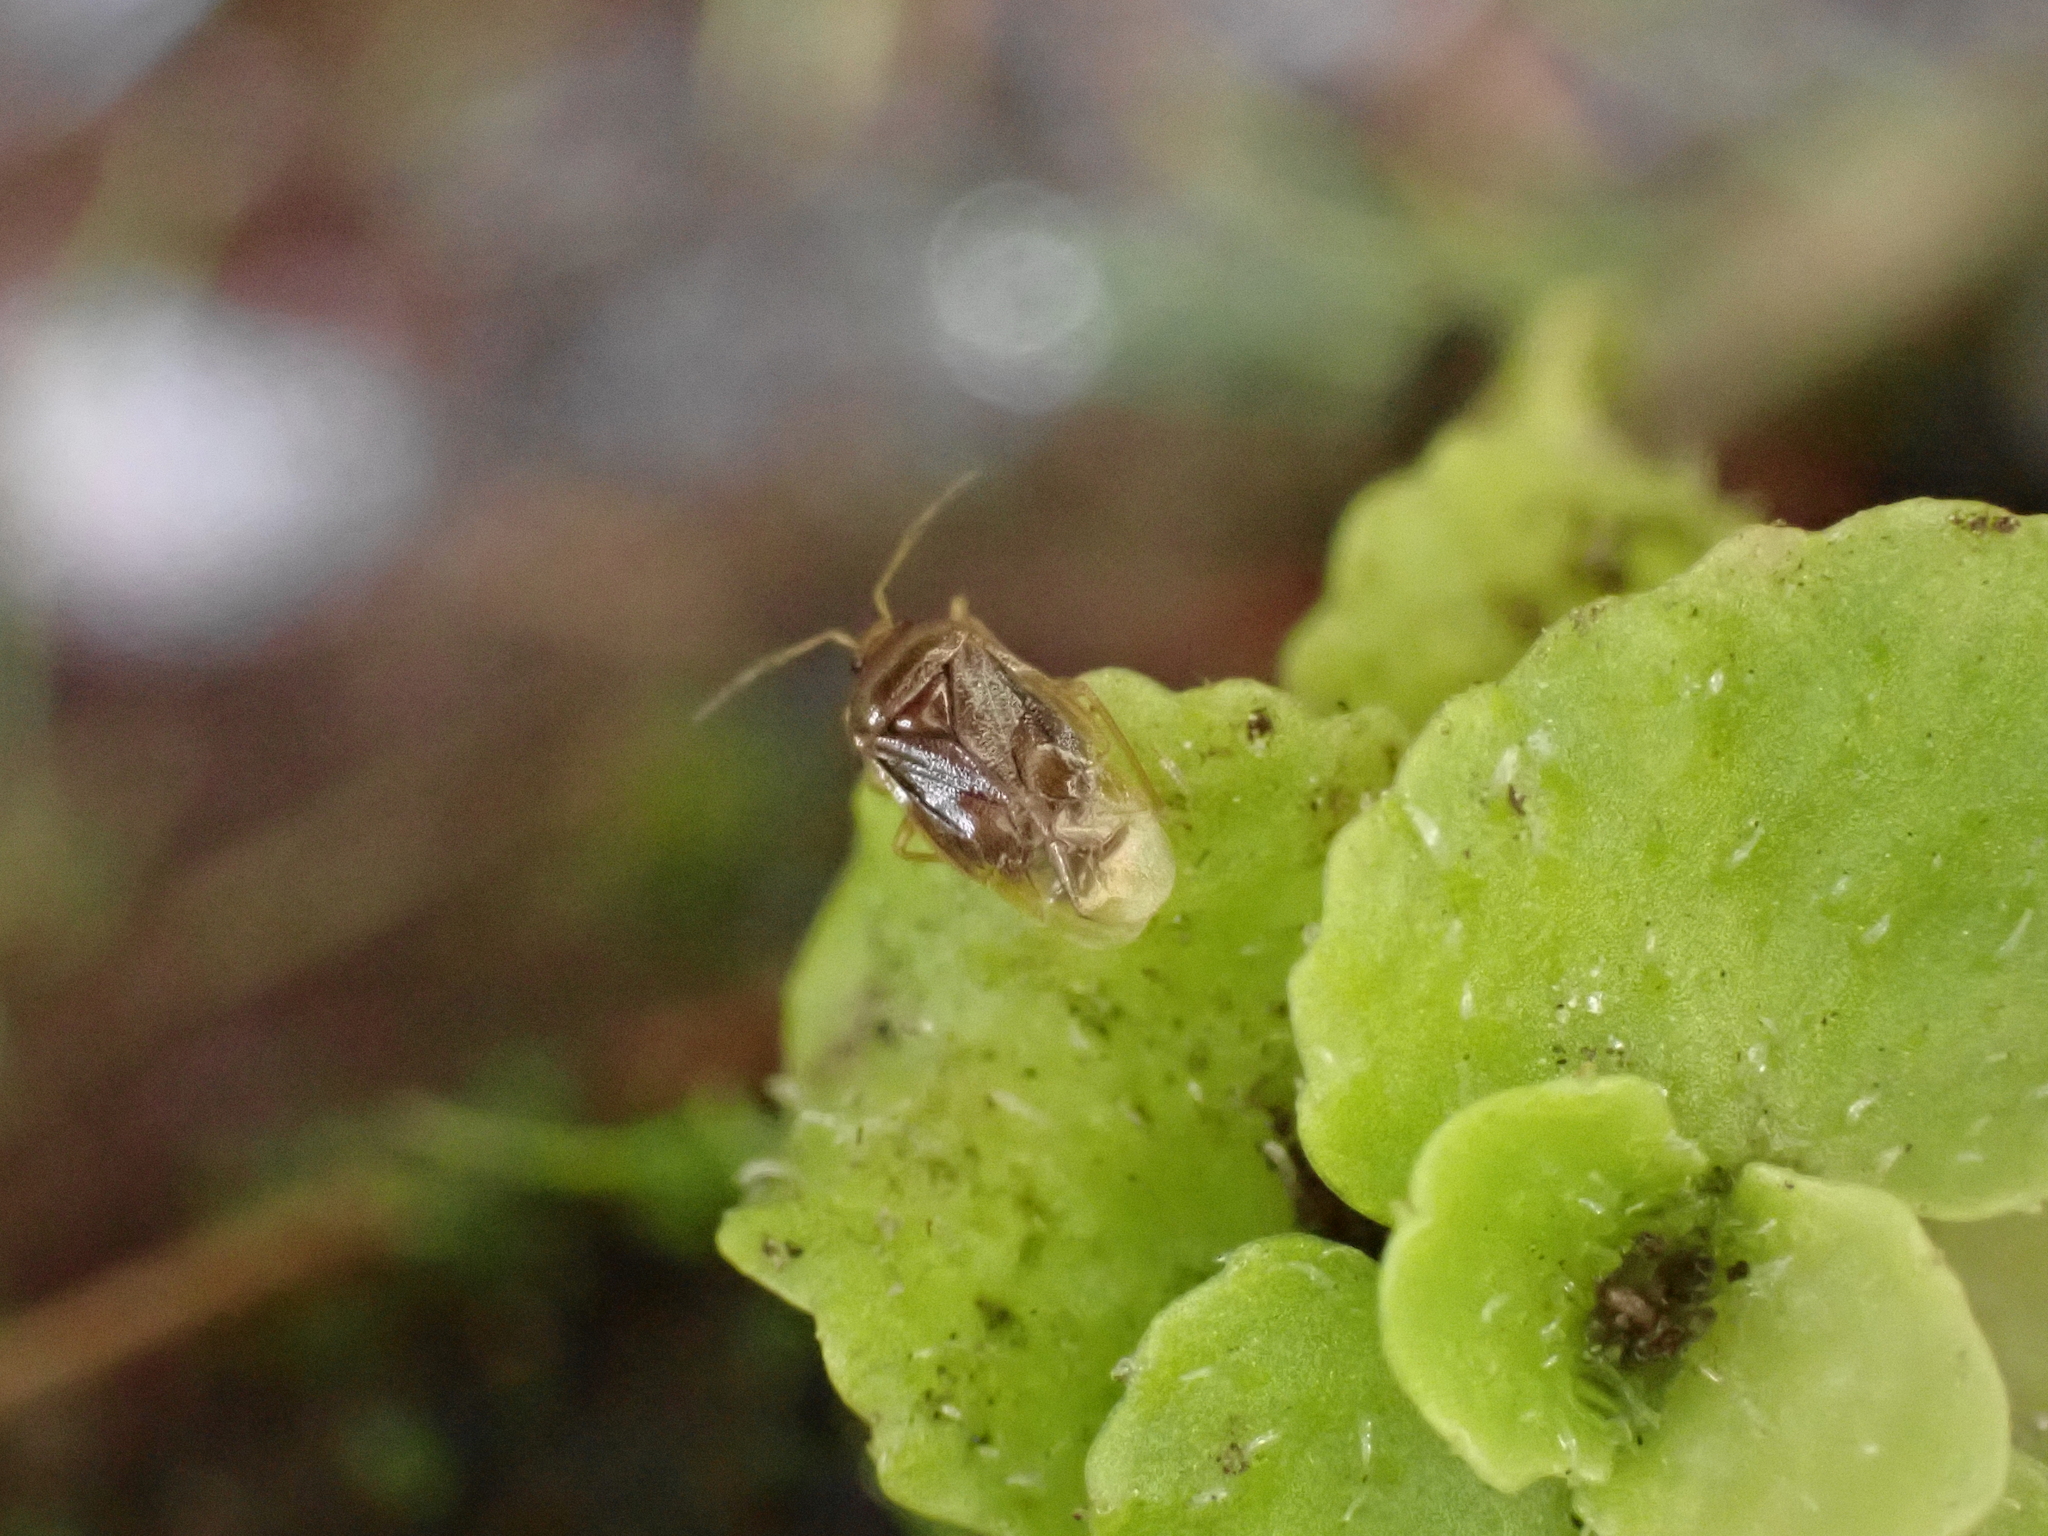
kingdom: Animalia
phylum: Arthropoda
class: Insecta
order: Hemiptera
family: Miridae
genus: Monalocoris
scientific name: Monalocoris filicis
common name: Bracken bug
